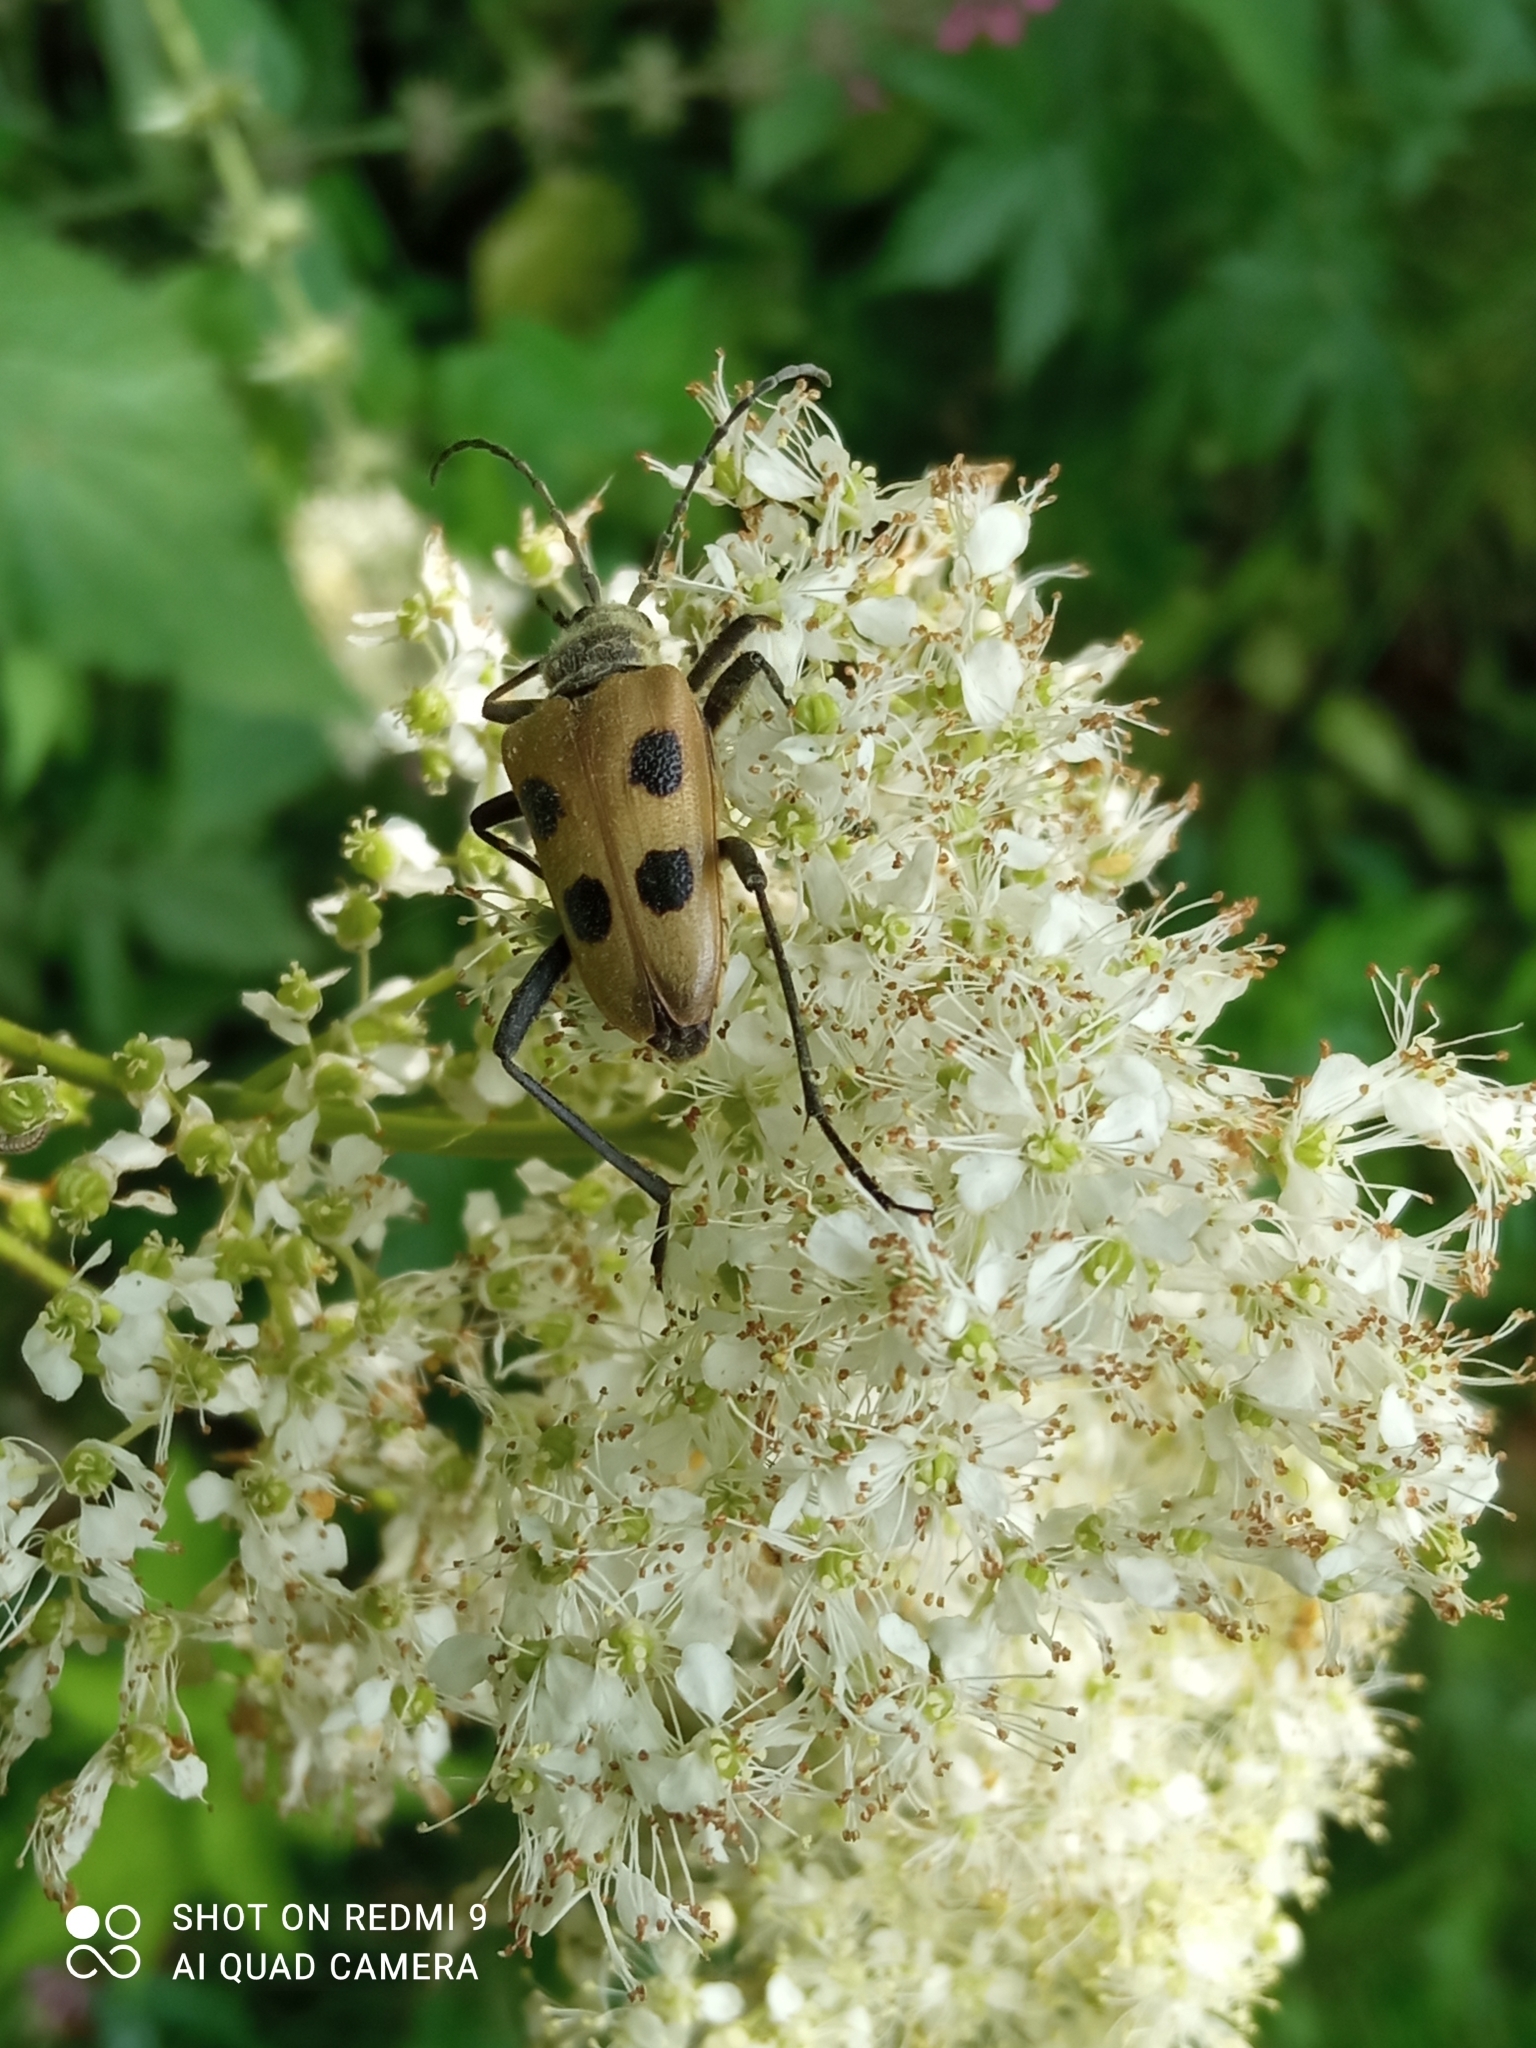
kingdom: Animalia
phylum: Arthropoda
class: Insecta
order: Coleoptera
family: Cerambycidae
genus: Pachyta
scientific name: Pachyta quadrimaculata
